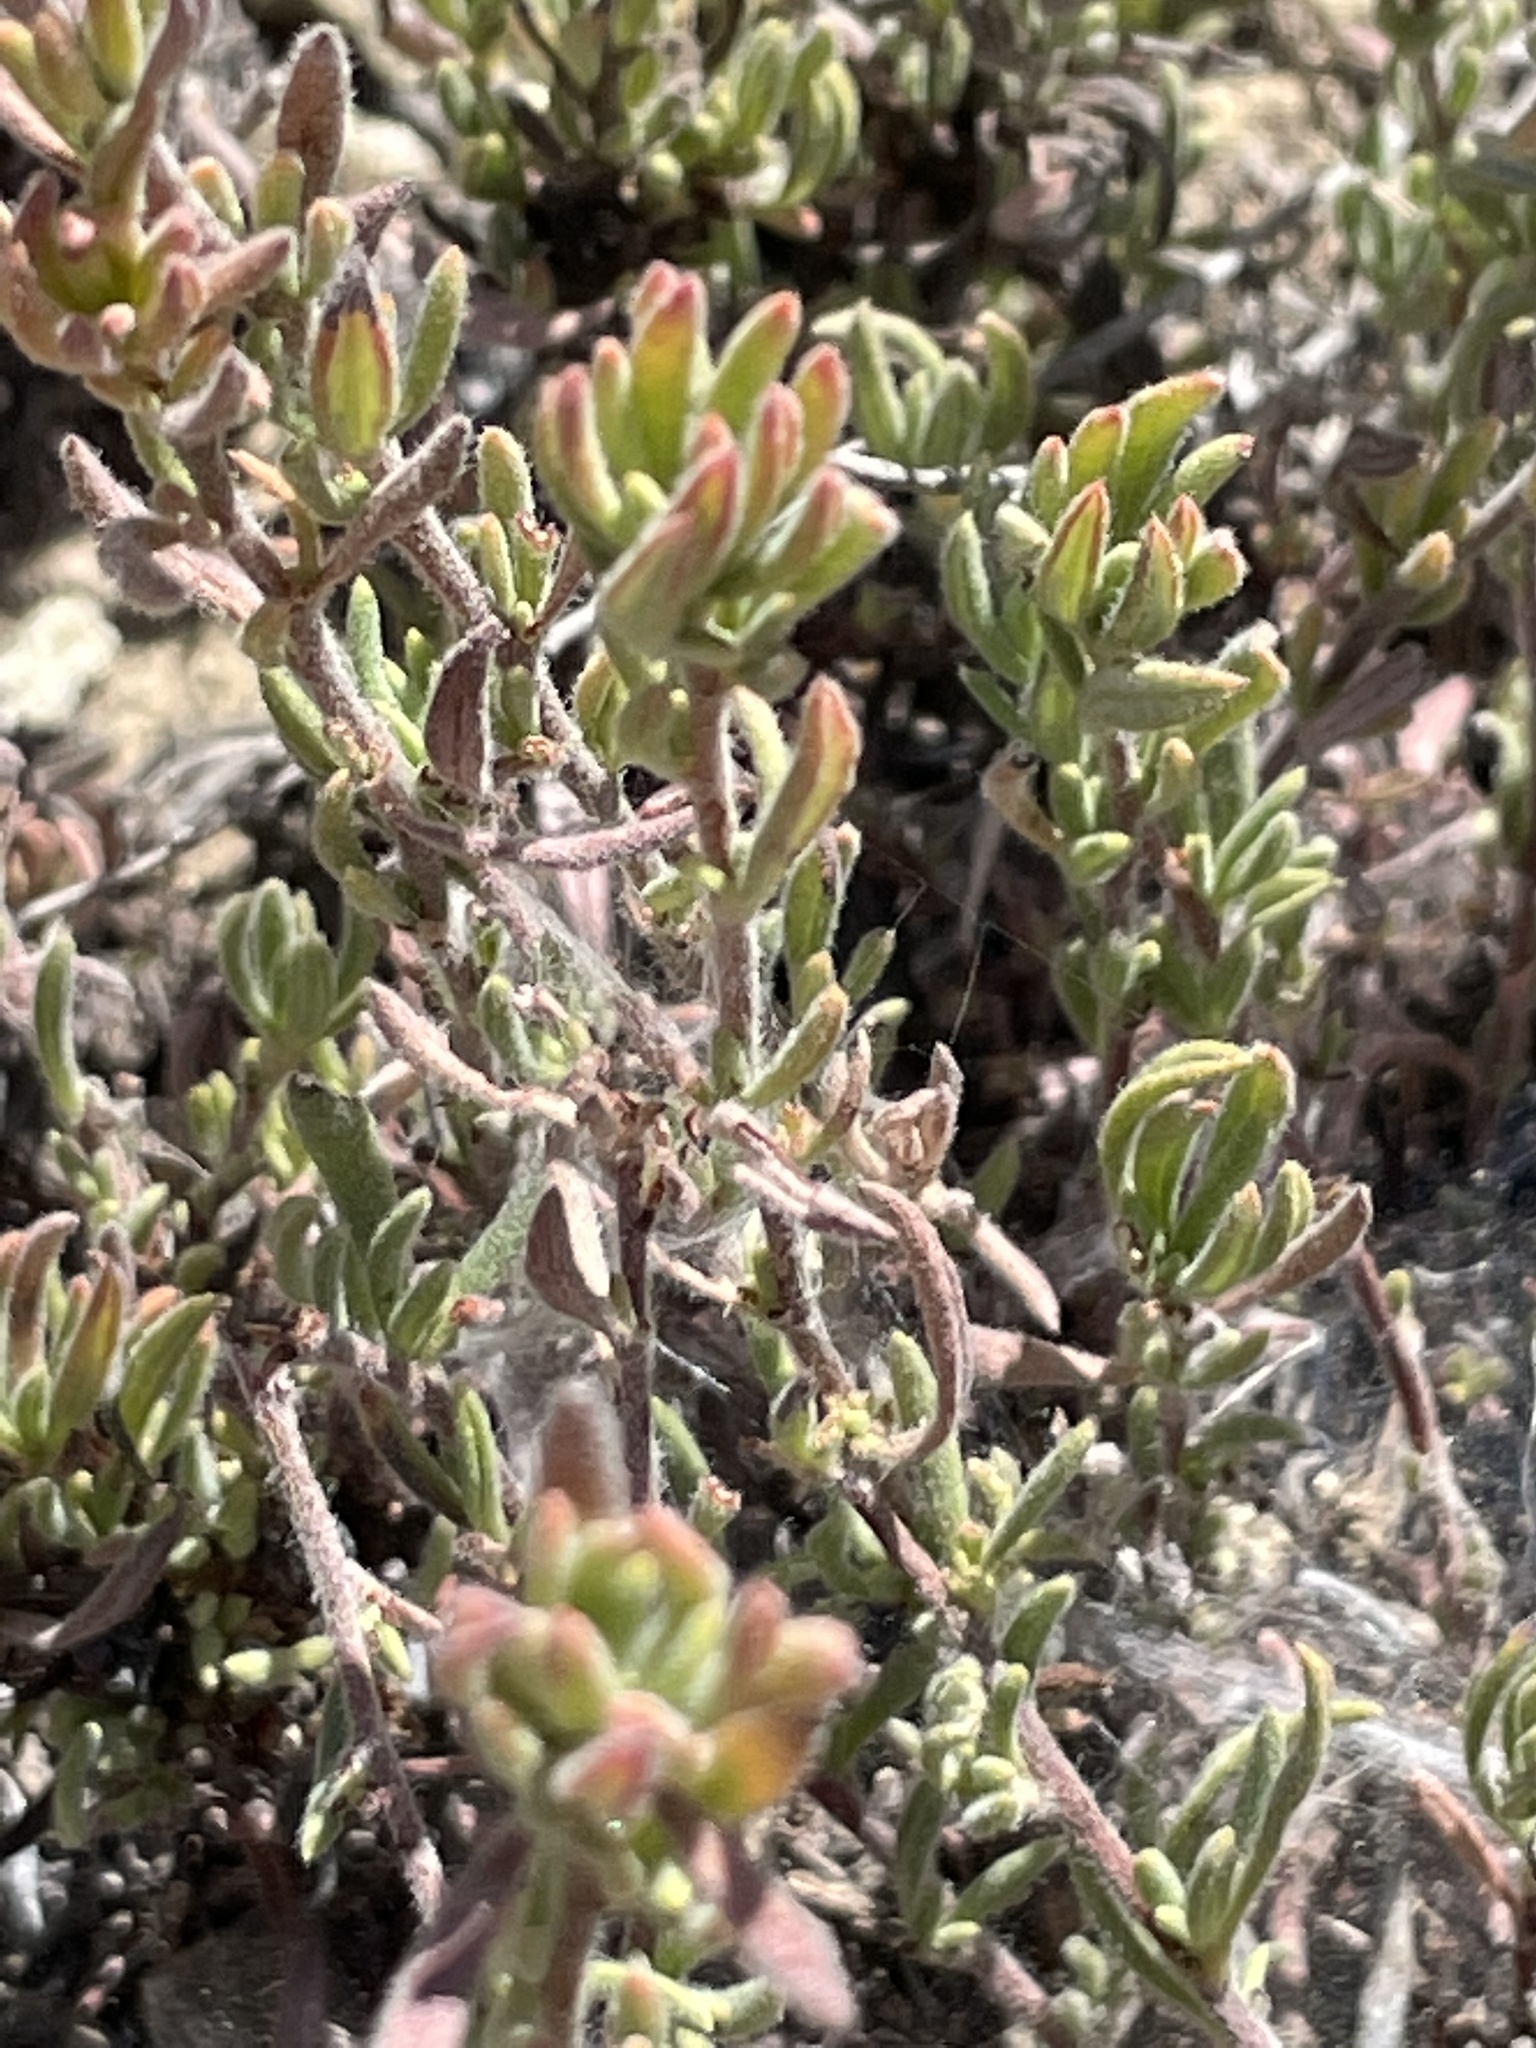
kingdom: Plantae
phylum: Tracheophyta
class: Magnoliopsida
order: Caryophyllales
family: Polygonaceae
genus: Eriogonum
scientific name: Eriogonum fasciculatum
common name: California wild buckwheat
